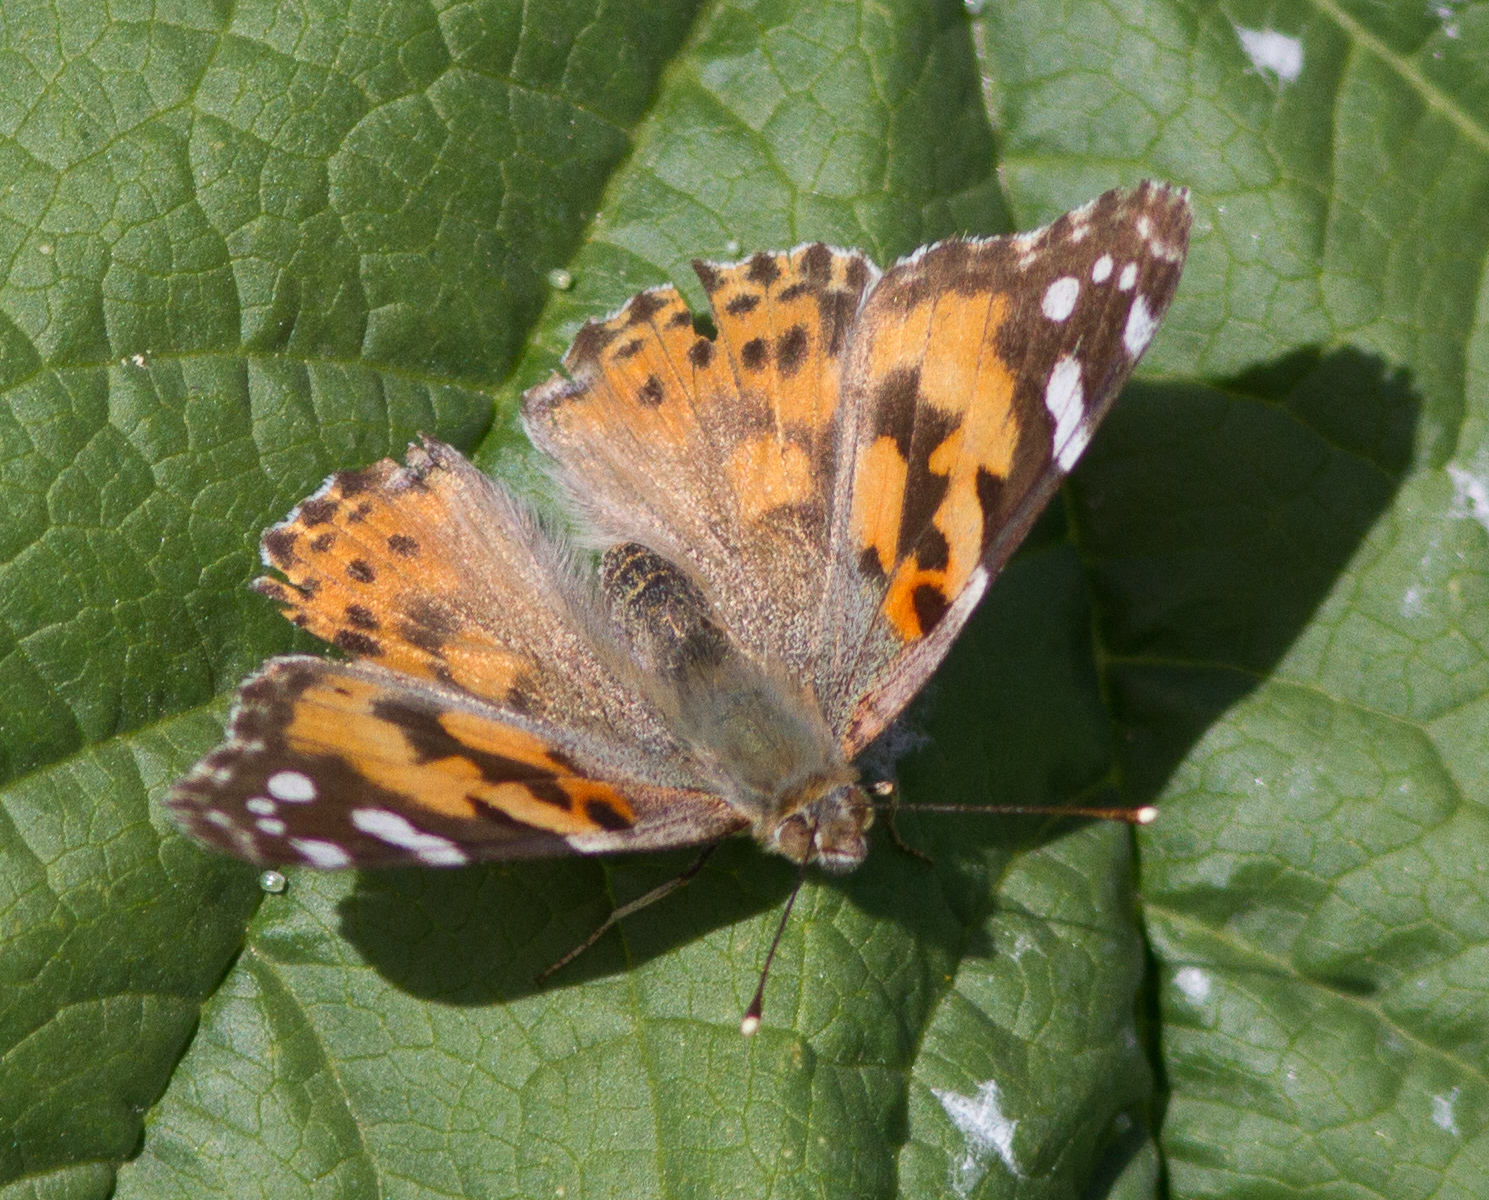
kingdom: Animalia
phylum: Arthropoda
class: Insecta
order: Lepidoptera
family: Nymphalidae
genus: Vanessa
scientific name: Vanessa cardui
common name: Painted lady
